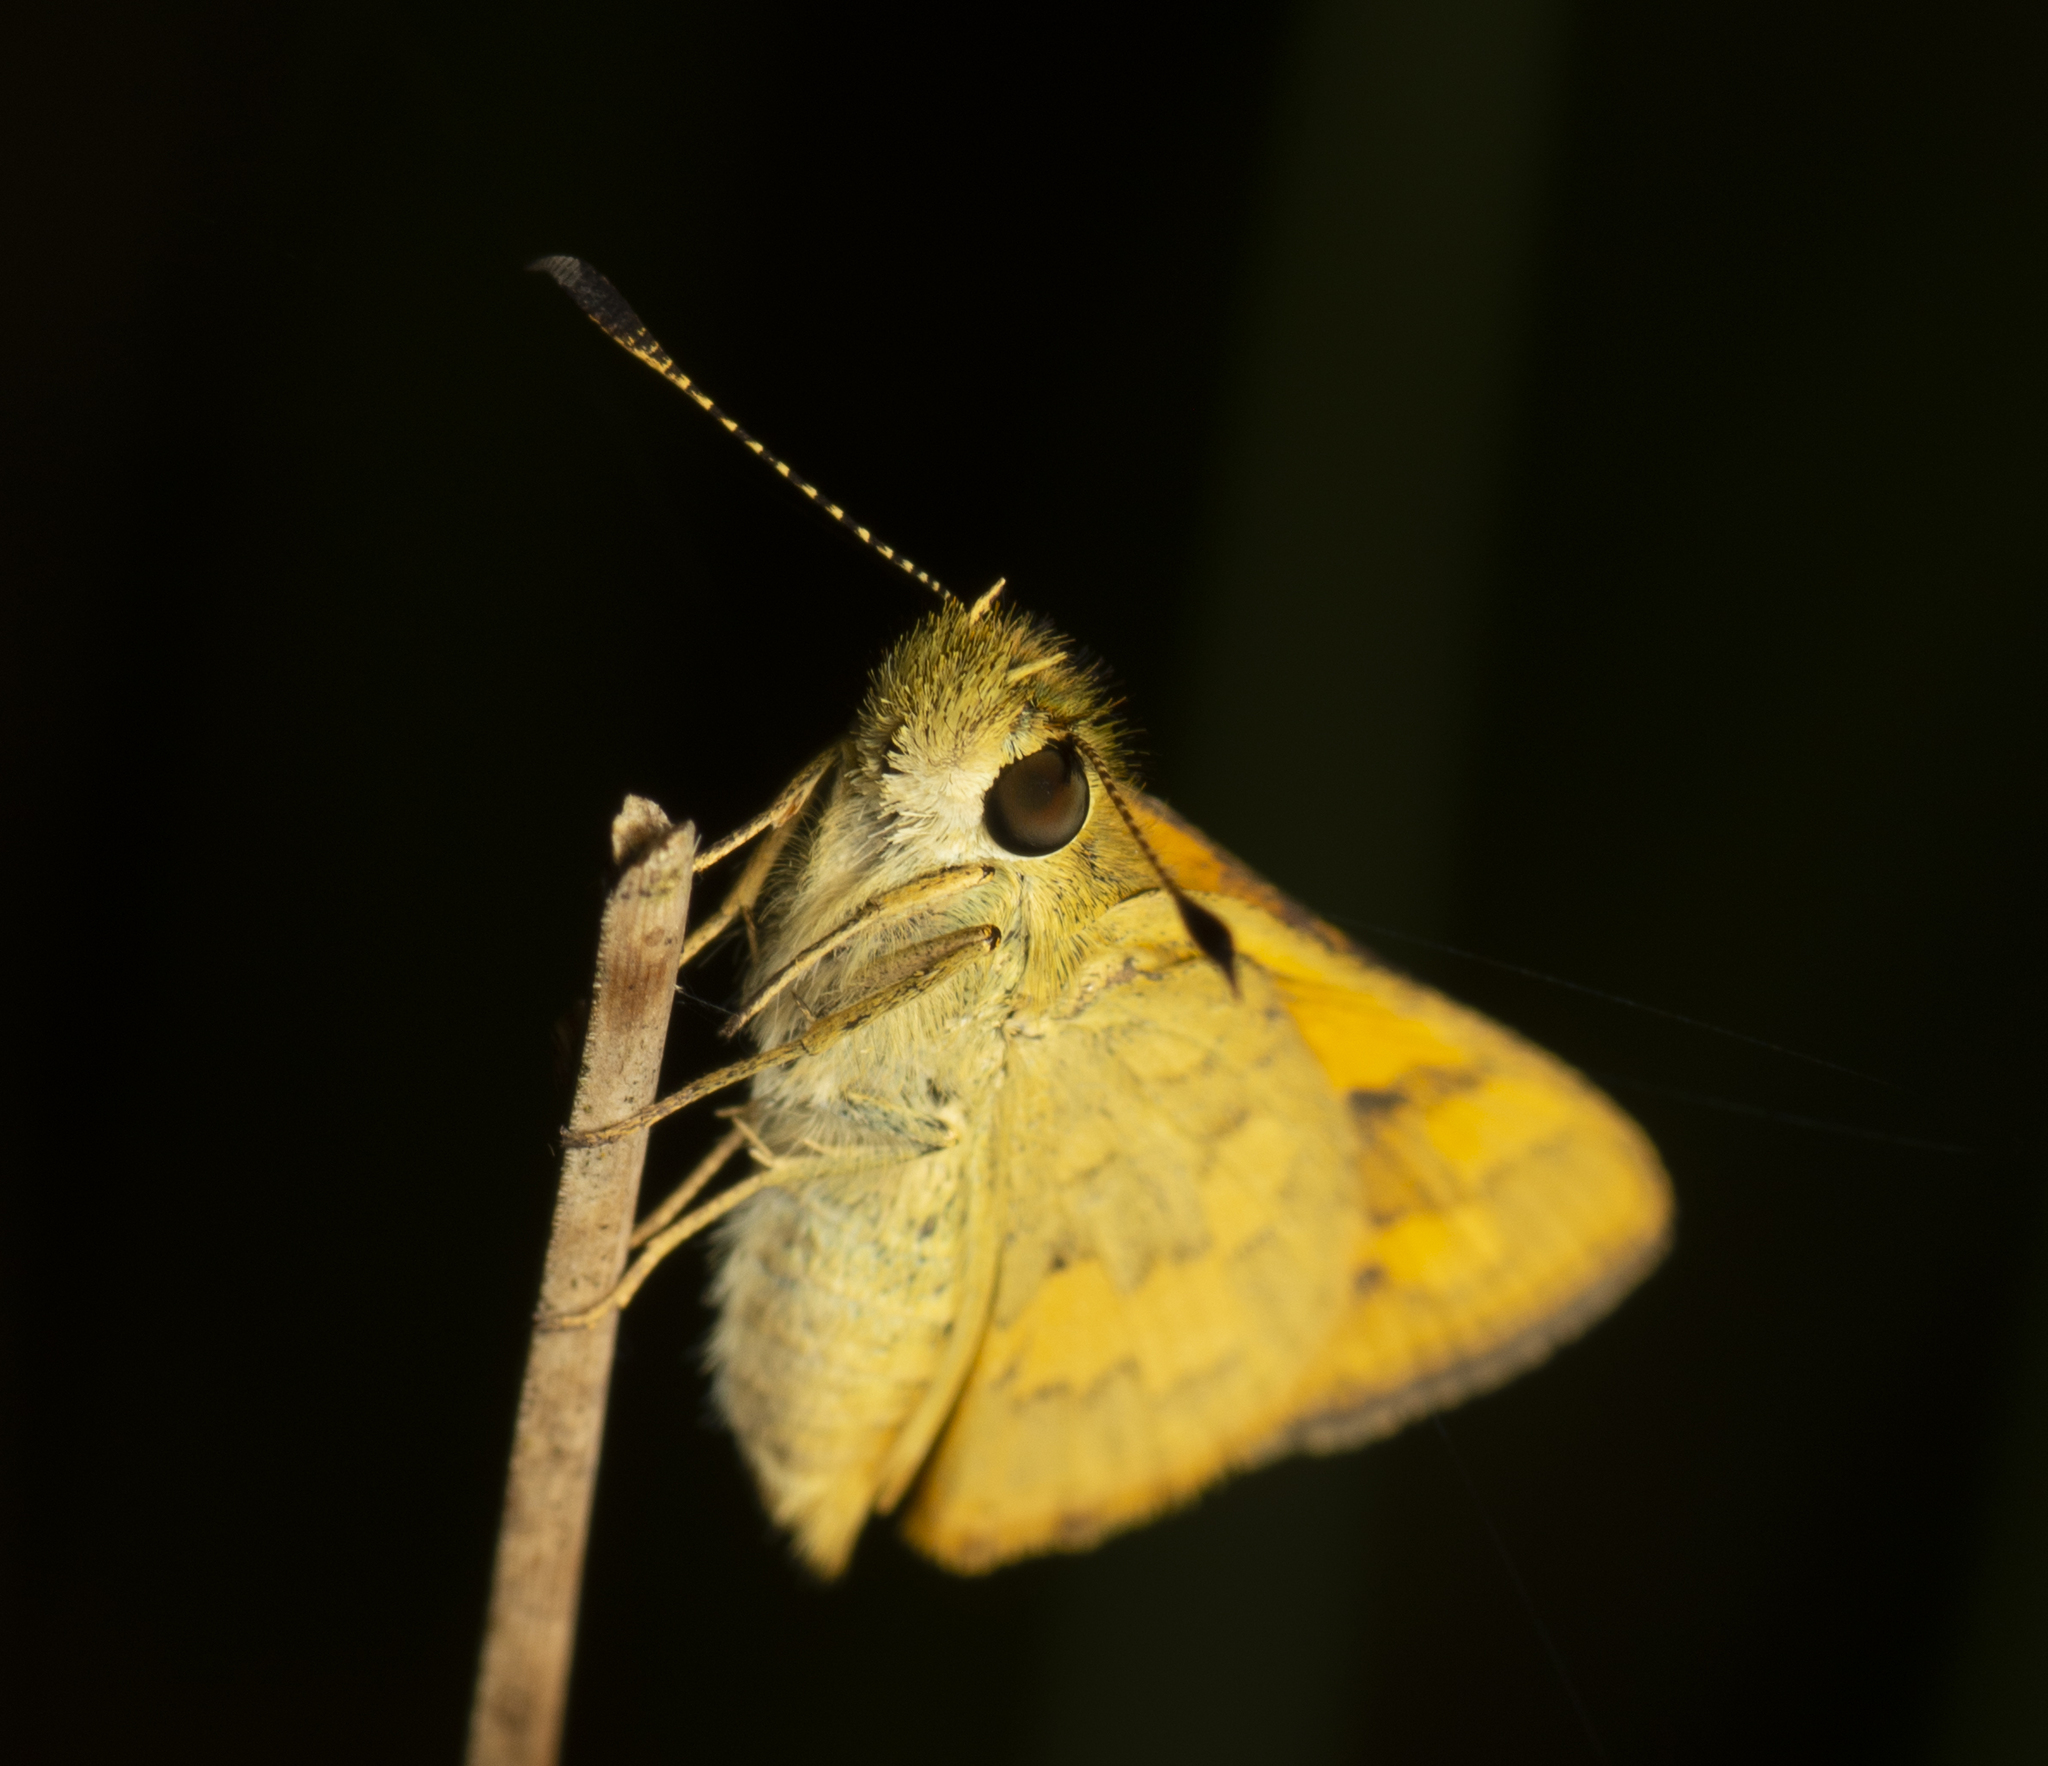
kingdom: Animalia
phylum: Arthropoda
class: Insecta
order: Lepidoptera
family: Hesperiidae
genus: Ocybadistes
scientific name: Ocybadistes walkeri
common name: Yellow-banded dart
